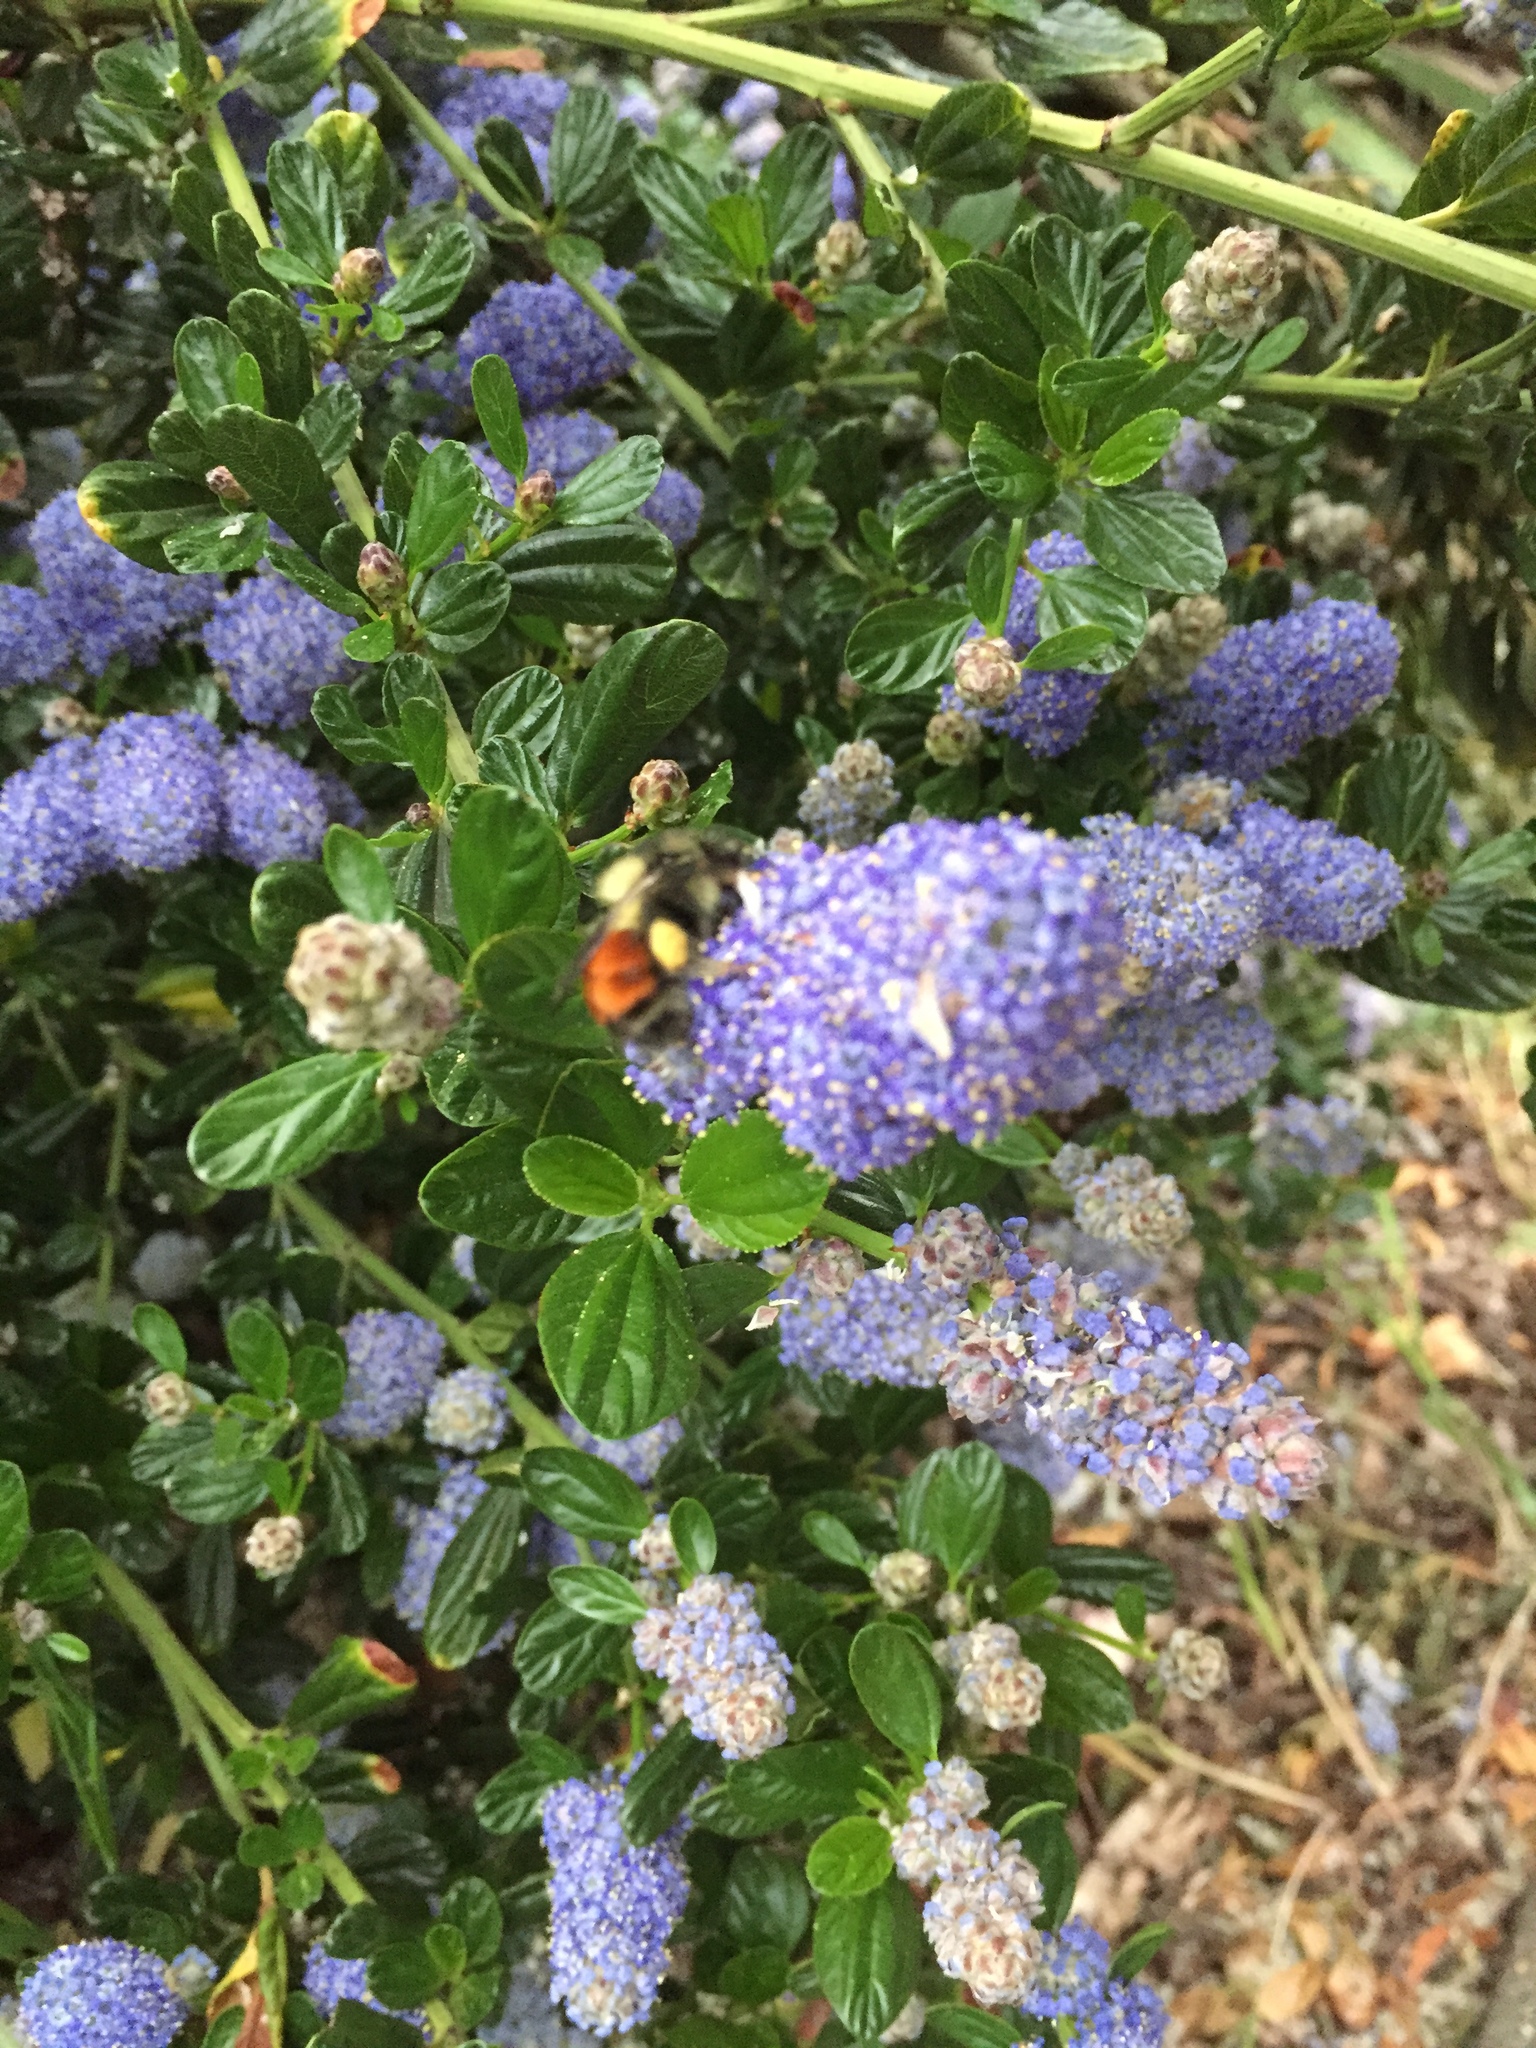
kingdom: Animalia
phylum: Arthropoda
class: Insecta
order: Hymenoptera
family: Apidae
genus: Bombus
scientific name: Bombus melanopygus
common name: Black tail bumble bee
